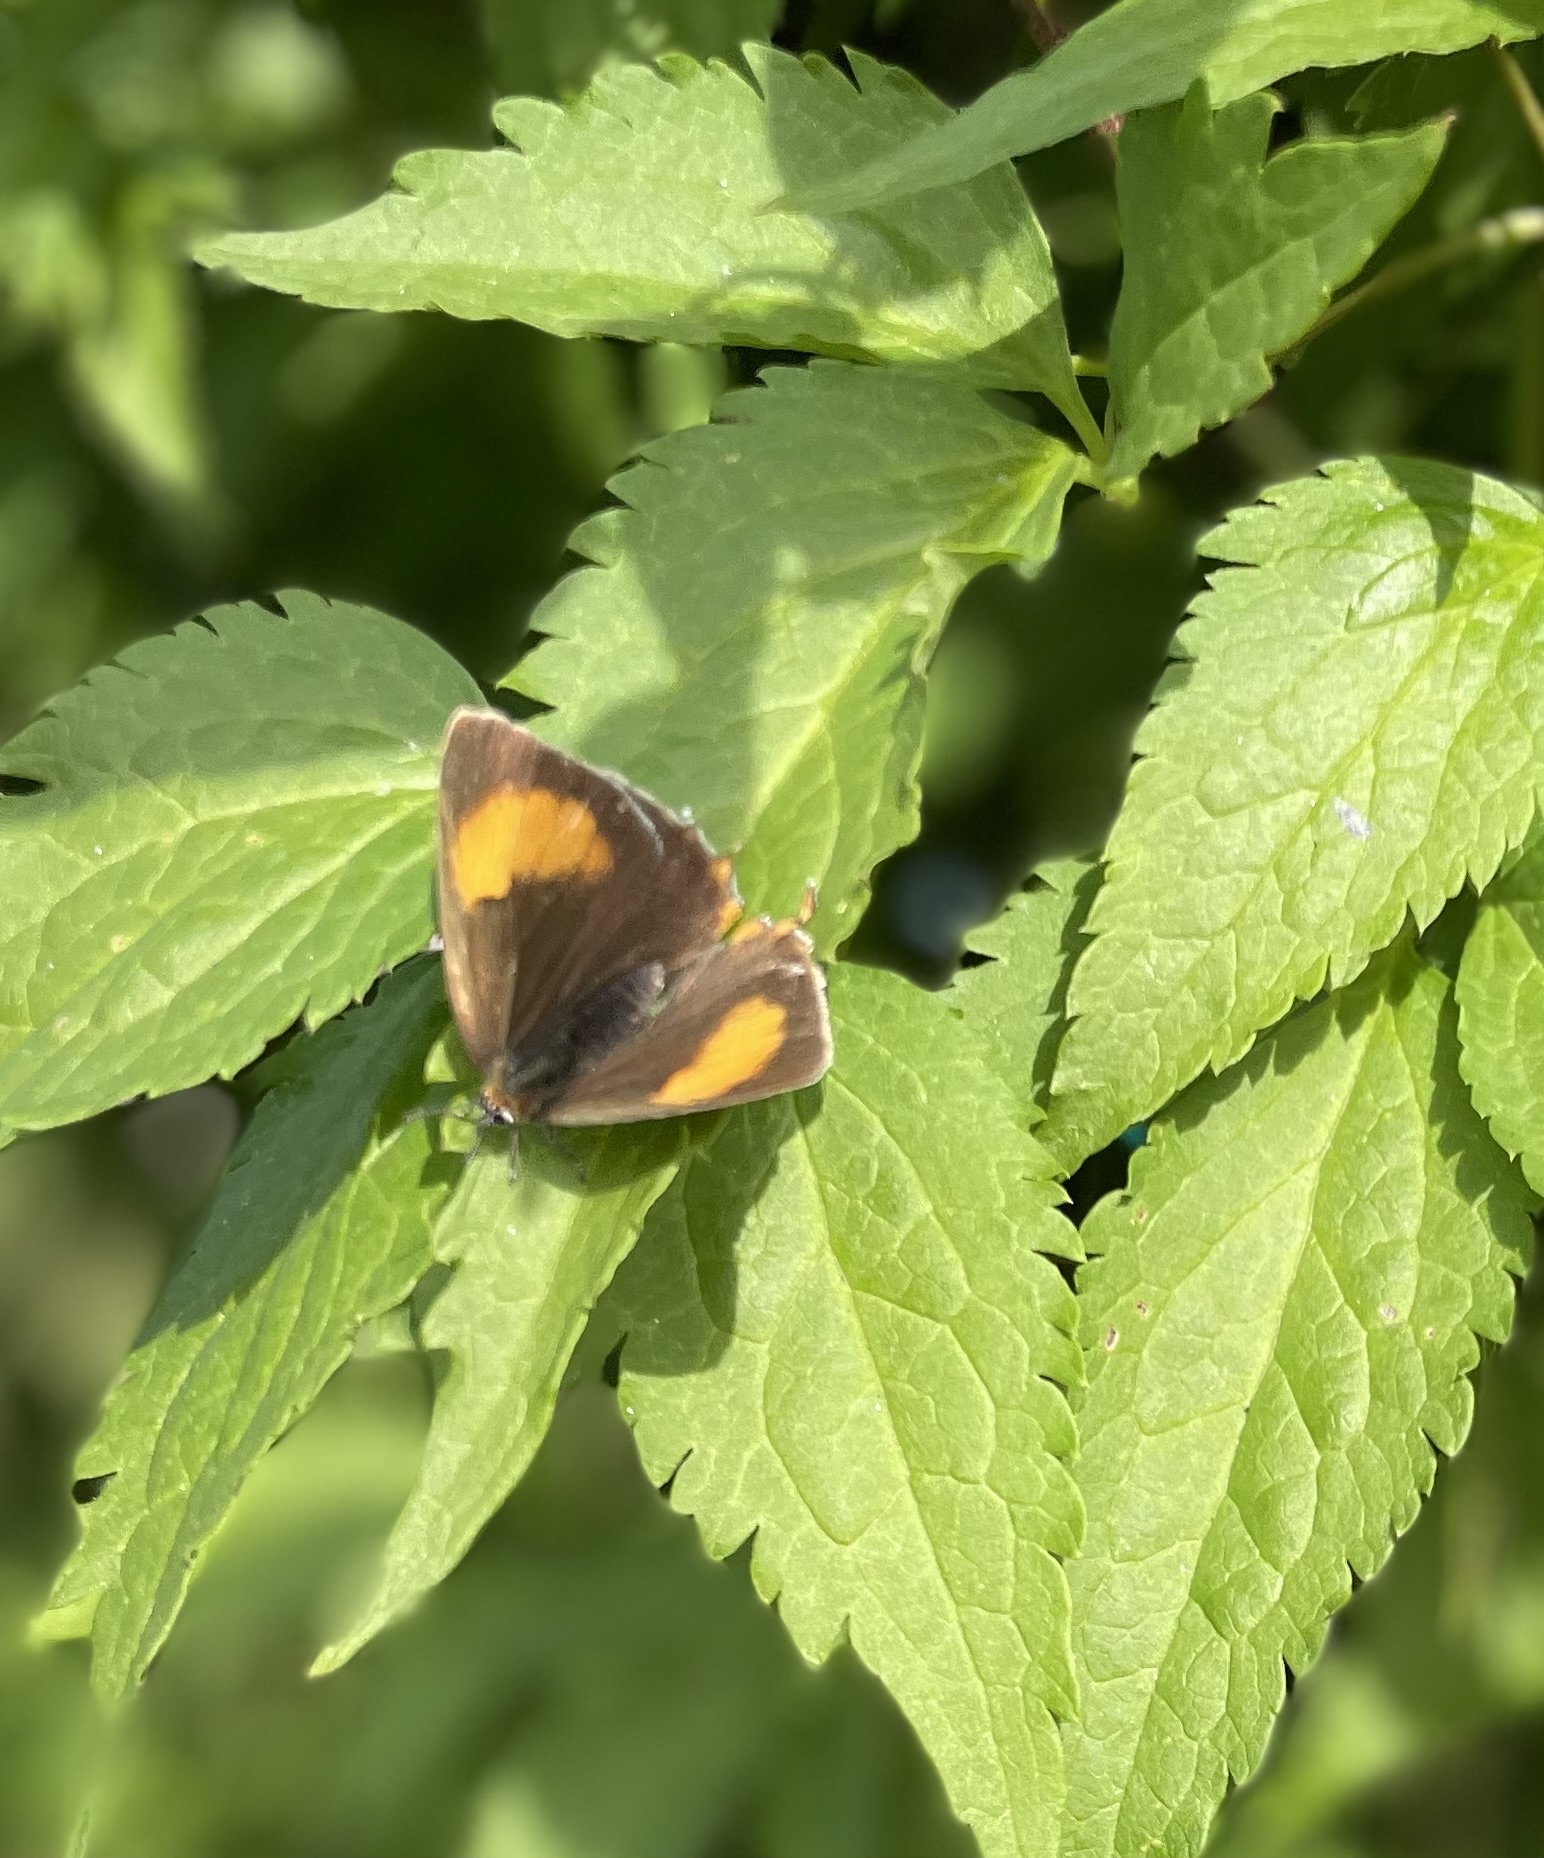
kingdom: Animalia
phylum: Arthropoda
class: Insecta
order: Lepidoptera
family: Lycaenidae
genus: Thecla
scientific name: Thecla betulae
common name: Brown hairstreak
